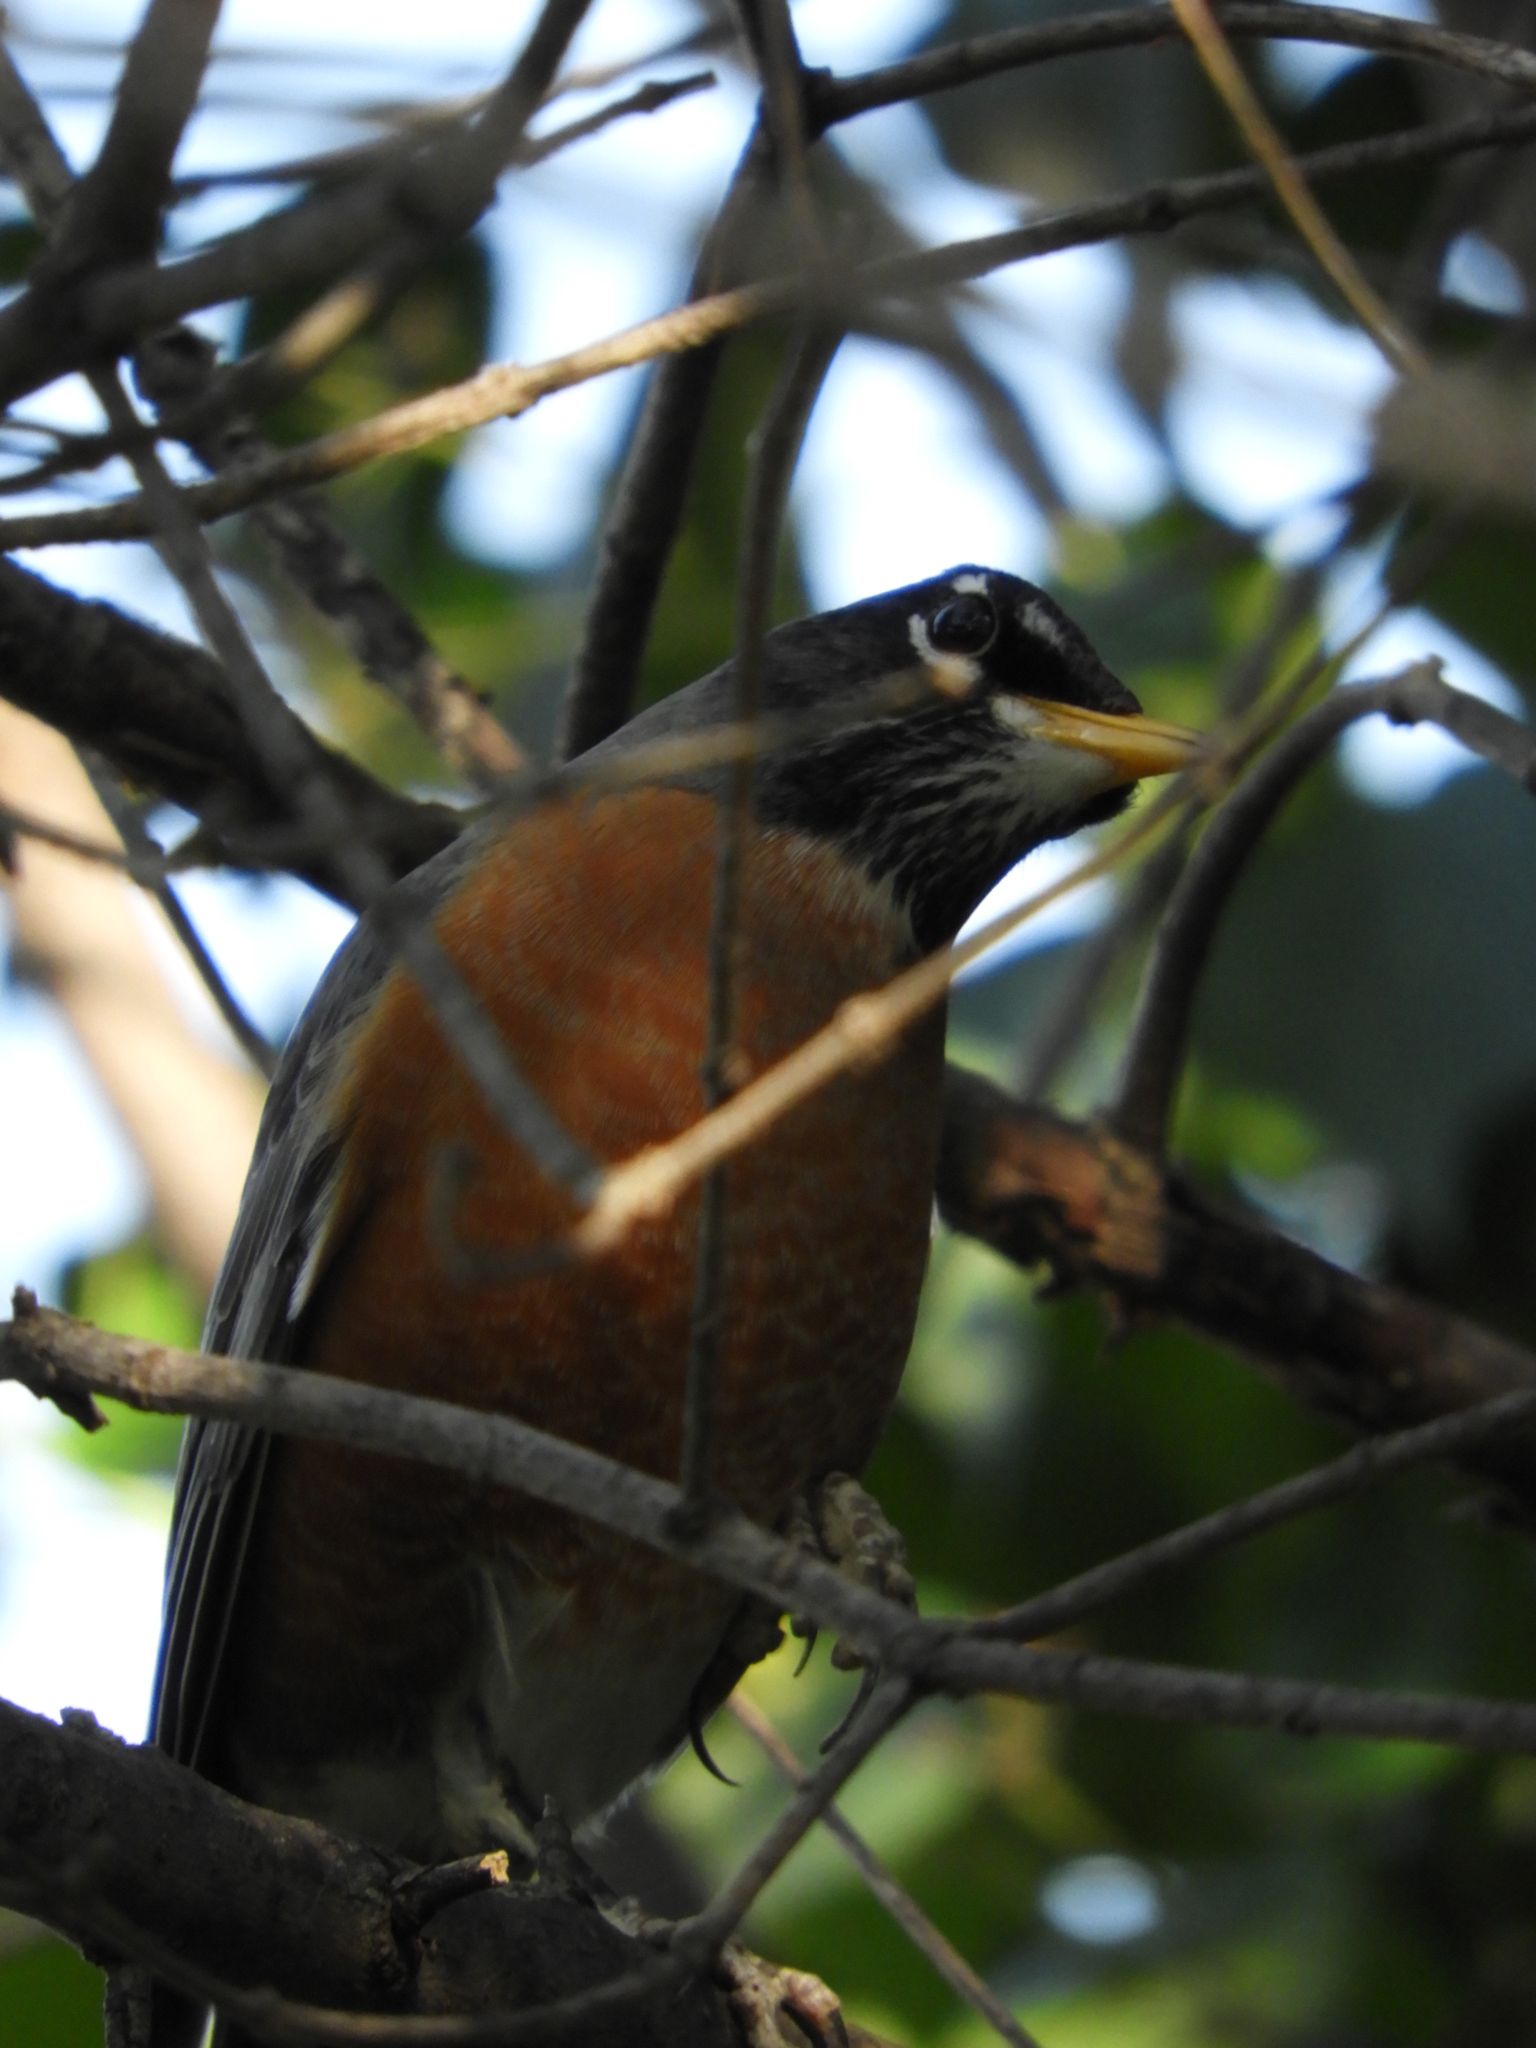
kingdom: Animalia
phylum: Chordata
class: Aves
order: Passeriformes
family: Turdidae
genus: Turdus
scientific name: Turdus migratorius
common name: American robin
